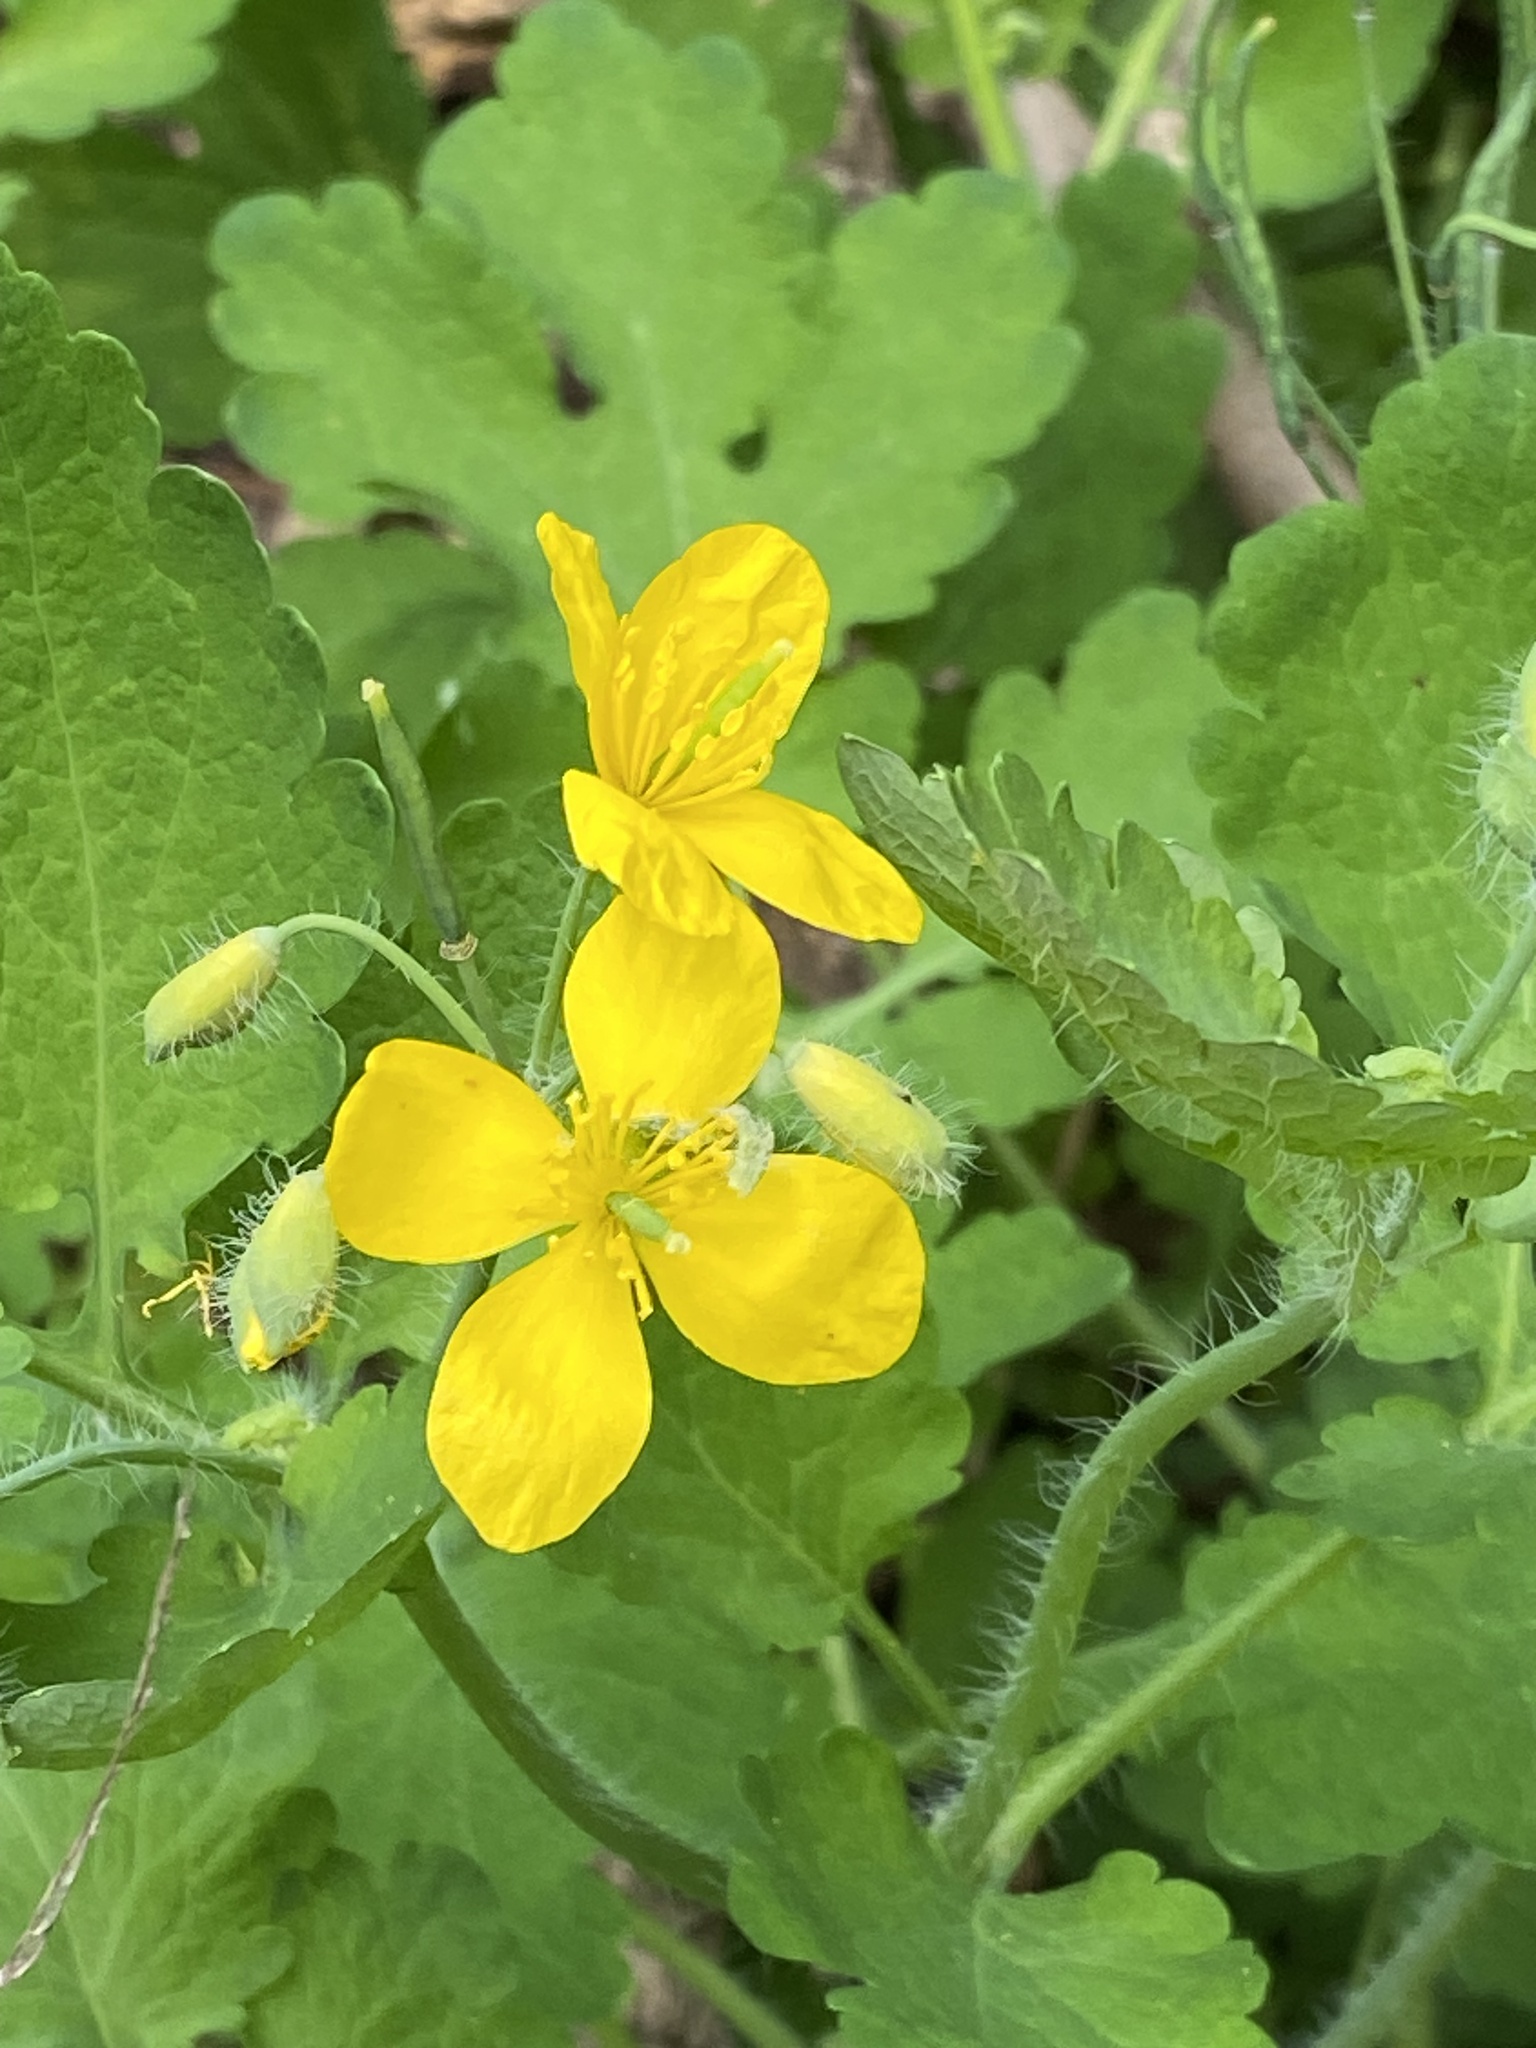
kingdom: Plantae
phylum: Tracheophyta
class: Magnoliopsida
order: Ranunculales
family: Papaveraceae
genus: Chelidonium
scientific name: Chelidonium majus
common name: Greater celandine
